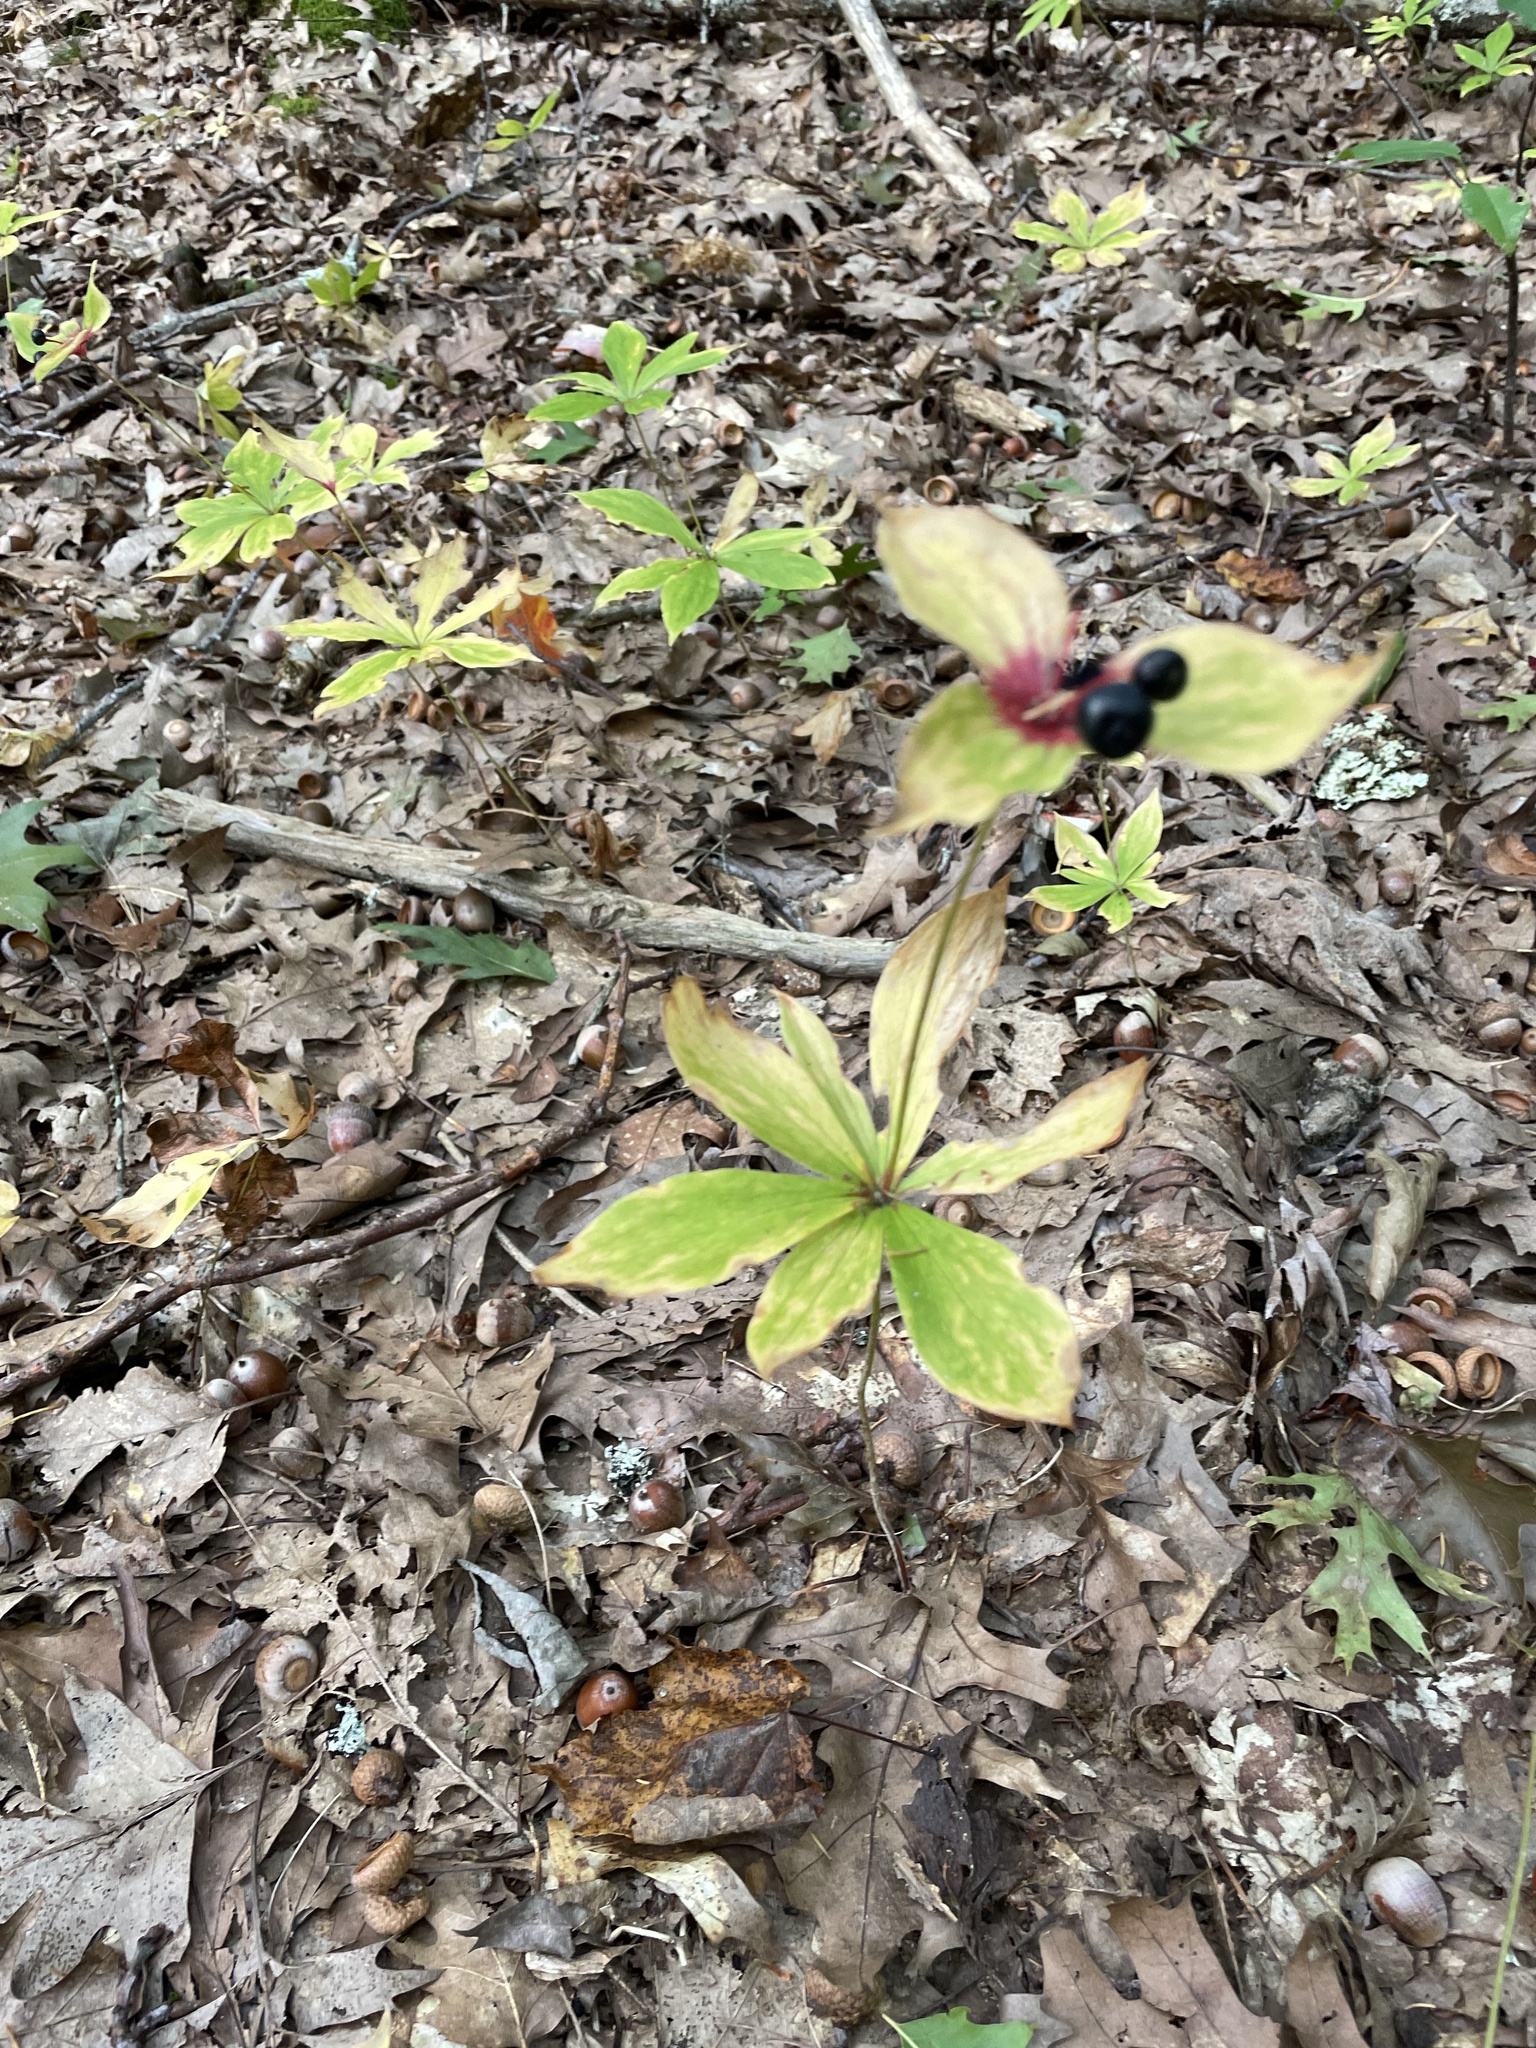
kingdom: Plantae
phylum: Tracheophyta
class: Liliopsida
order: Liliales
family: Liliaceae
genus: Medeola
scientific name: Medeola virginiana
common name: Indian cucumber-root
